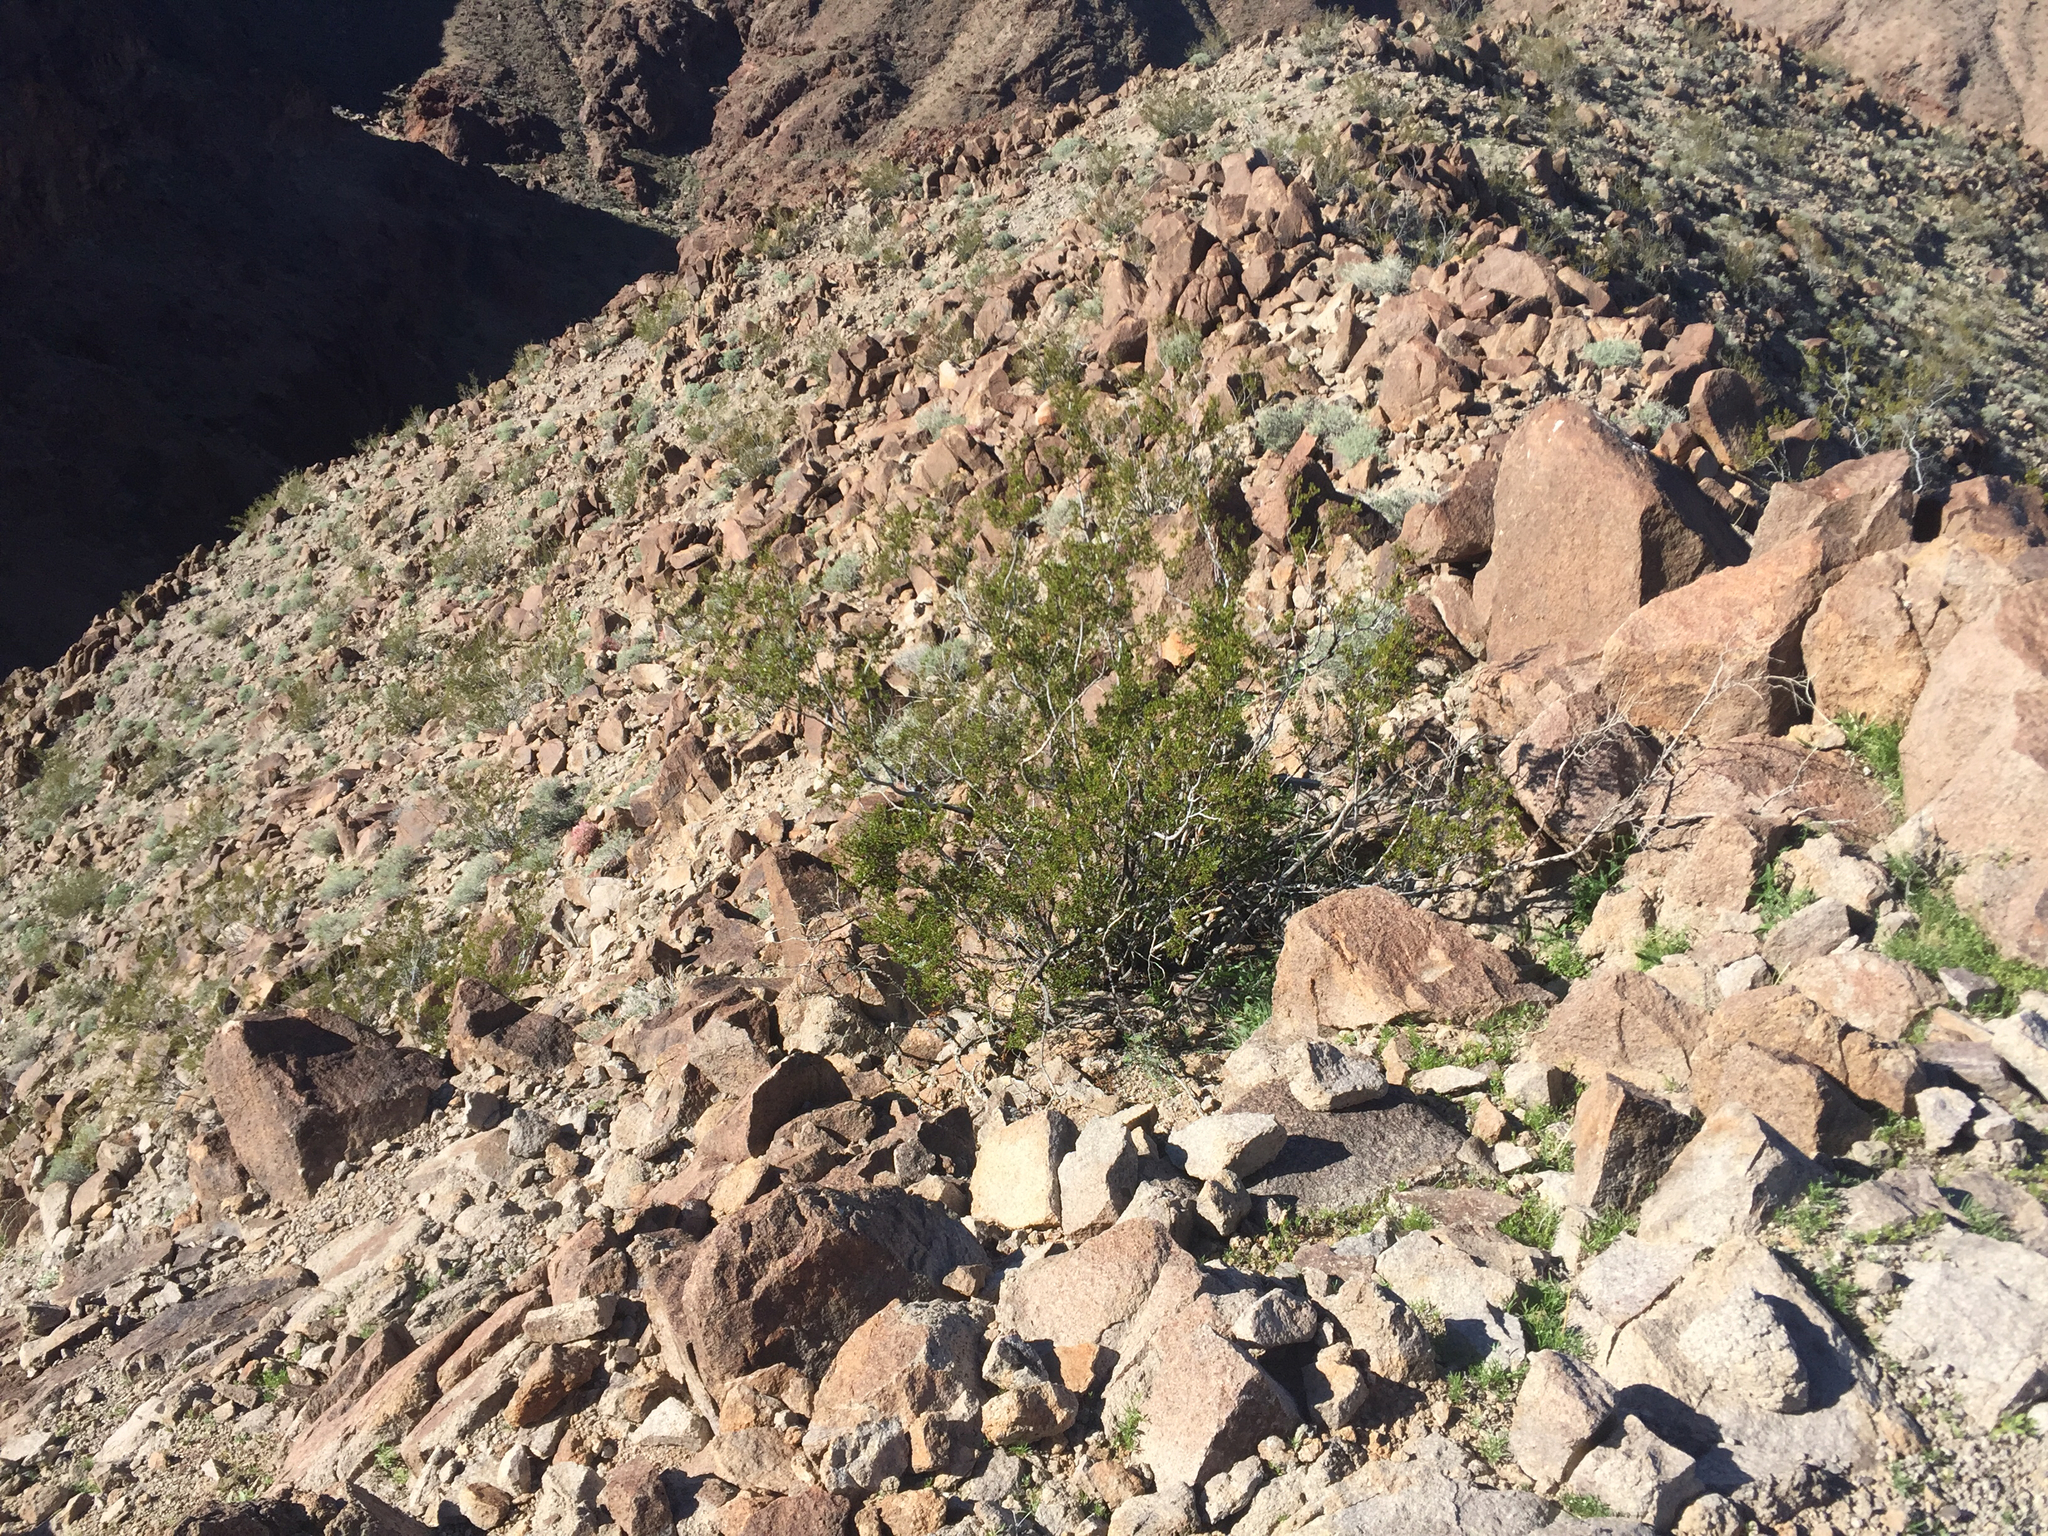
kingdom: Plantae
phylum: Tracheophyta
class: Magnoliopsida
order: Zygophyllales
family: Zygophyllaceae
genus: Larrea
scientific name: Larrea tridentata
